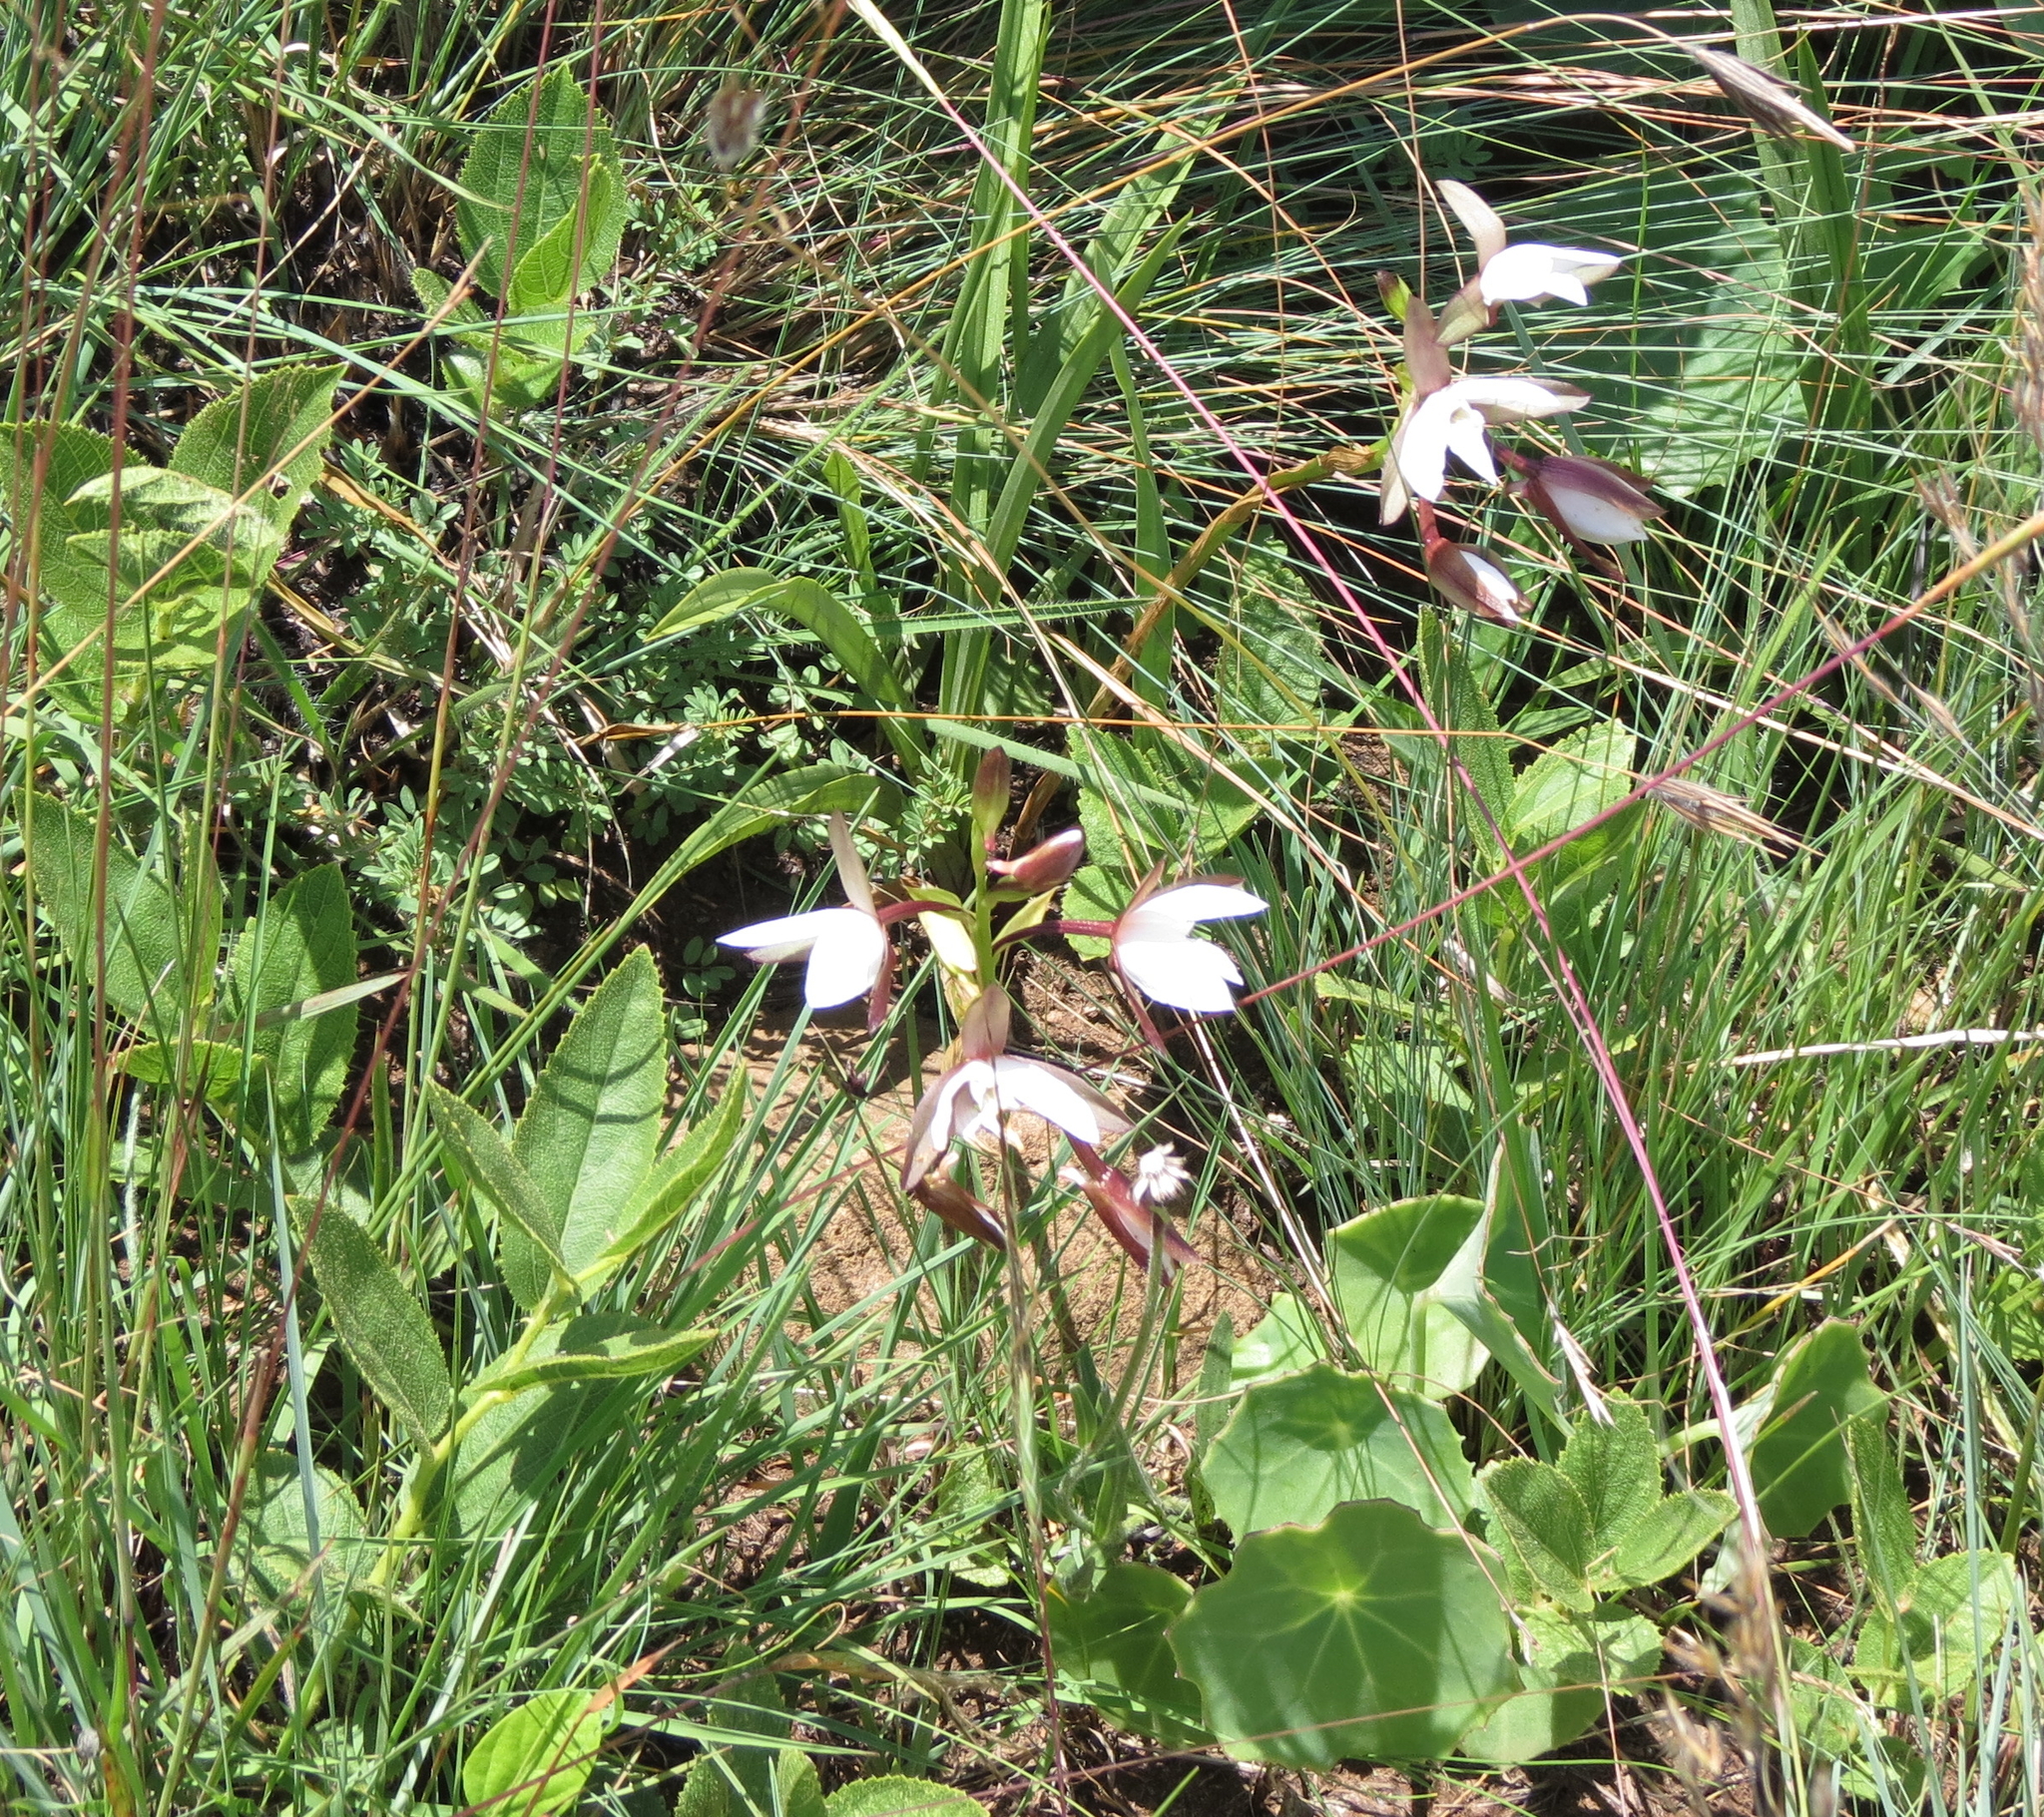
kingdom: Plantae
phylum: Tracheophyta
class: Liliopsida
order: Asparagales
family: Orchidaceae
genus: Eulophia
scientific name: Eulophia ovalis
